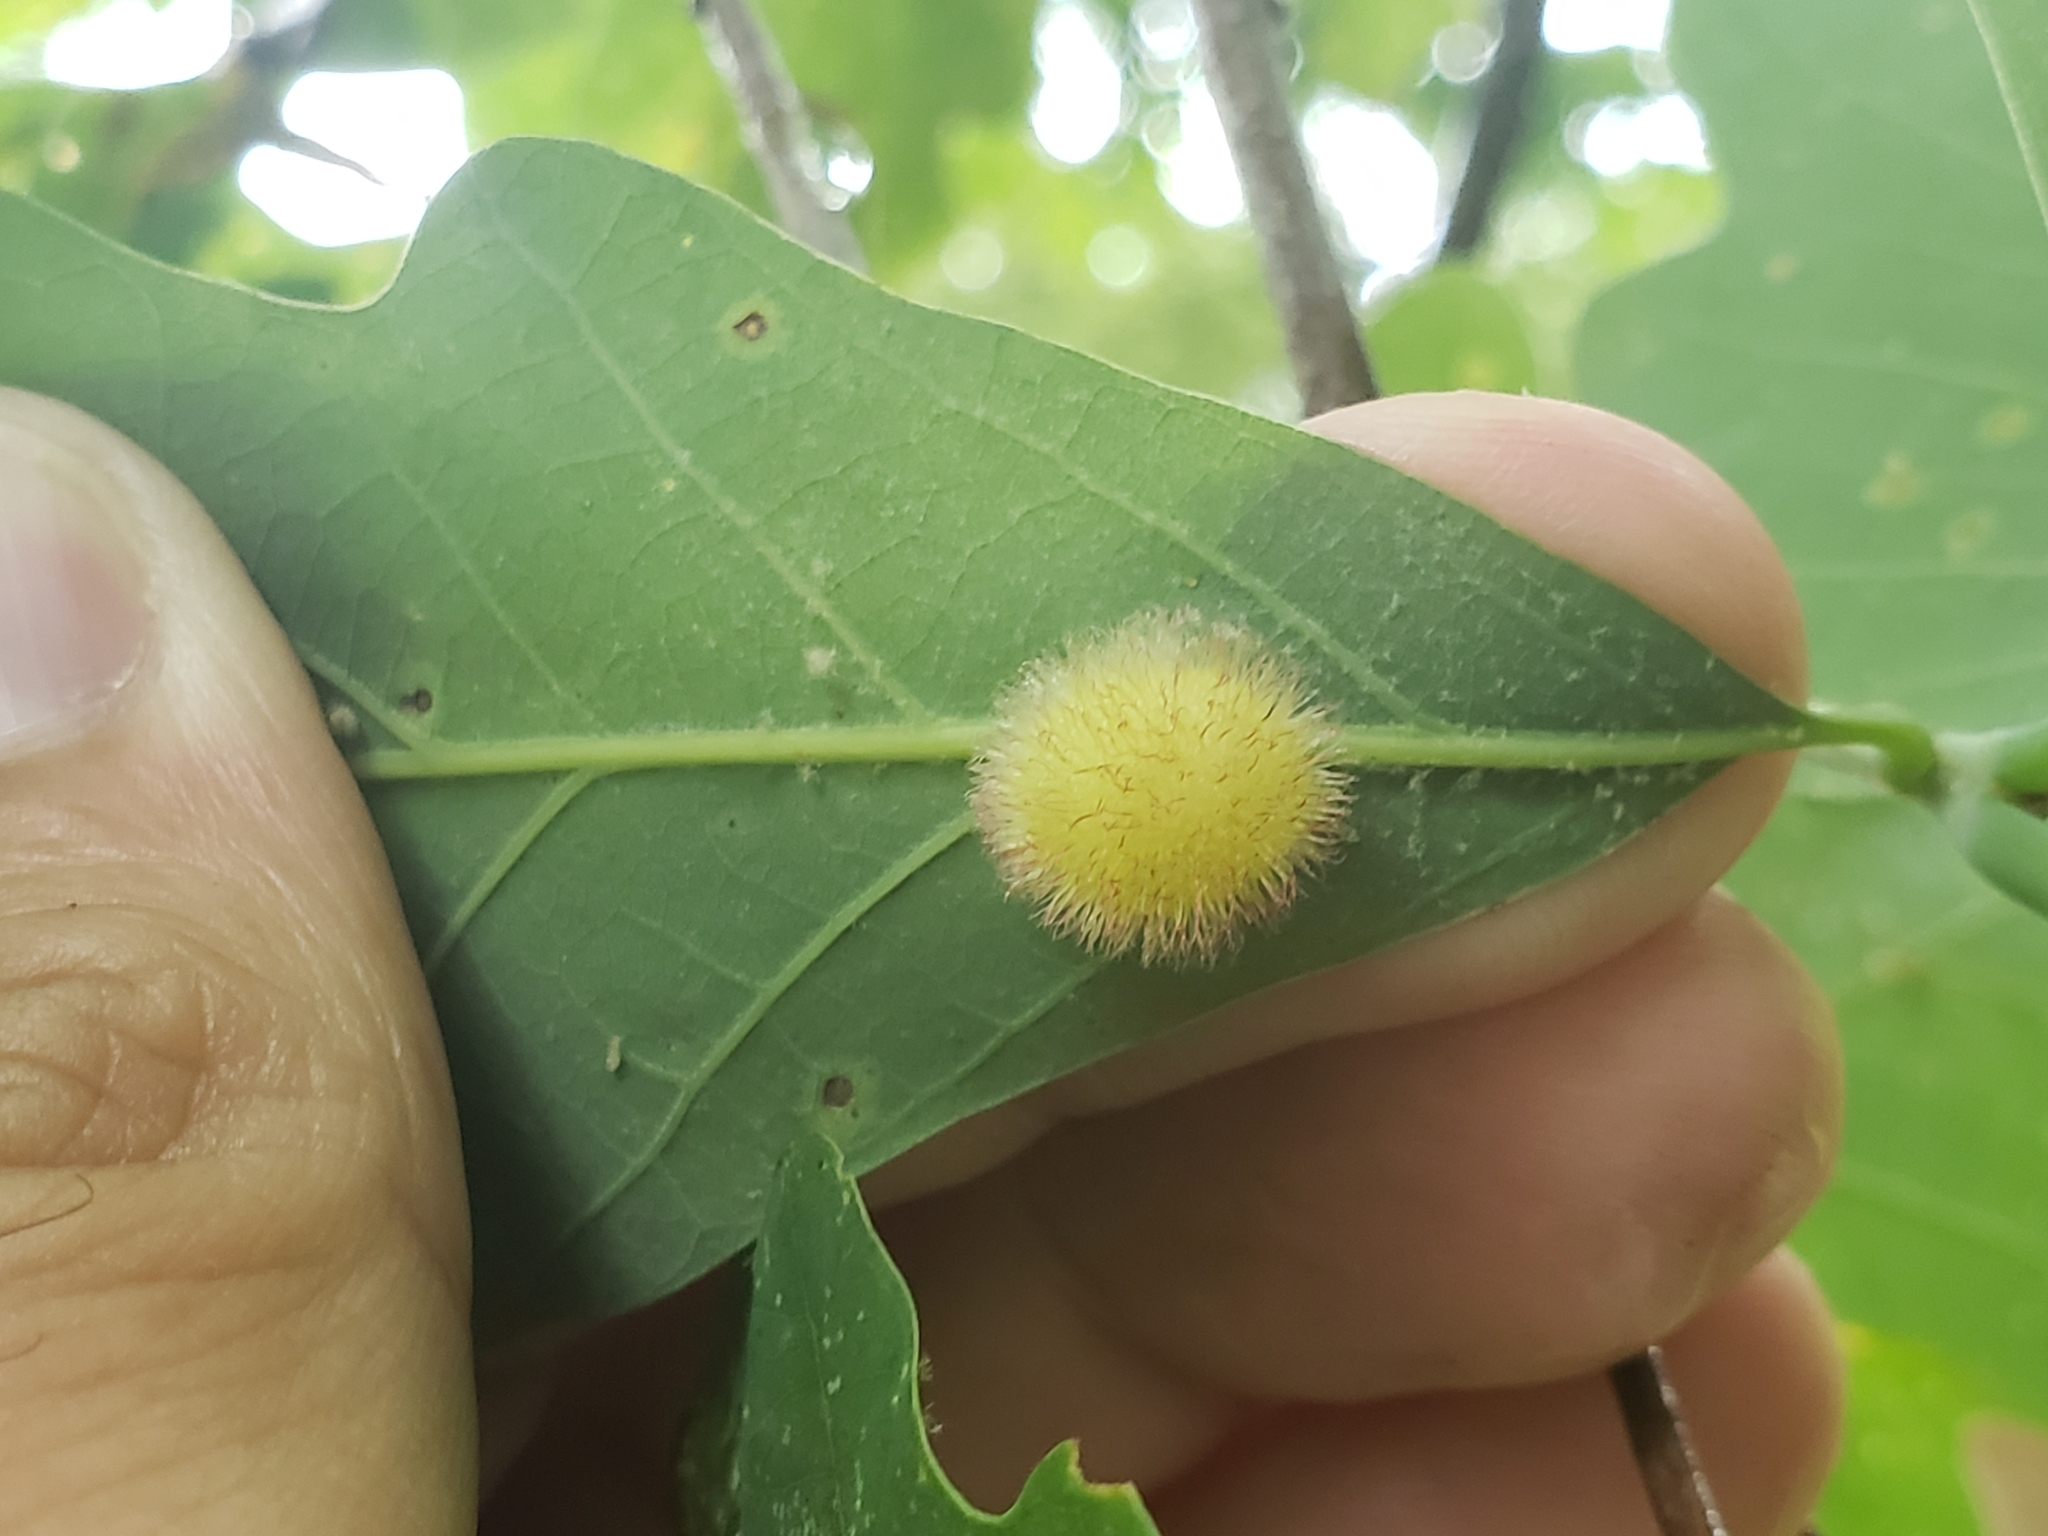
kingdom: Animalia
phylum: Arthropoda
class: Insecta
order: Hymenoptera
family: Cynipidae
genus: Acraspis
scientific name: Acraspis erinacei
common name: Hedgehog gall wasp
